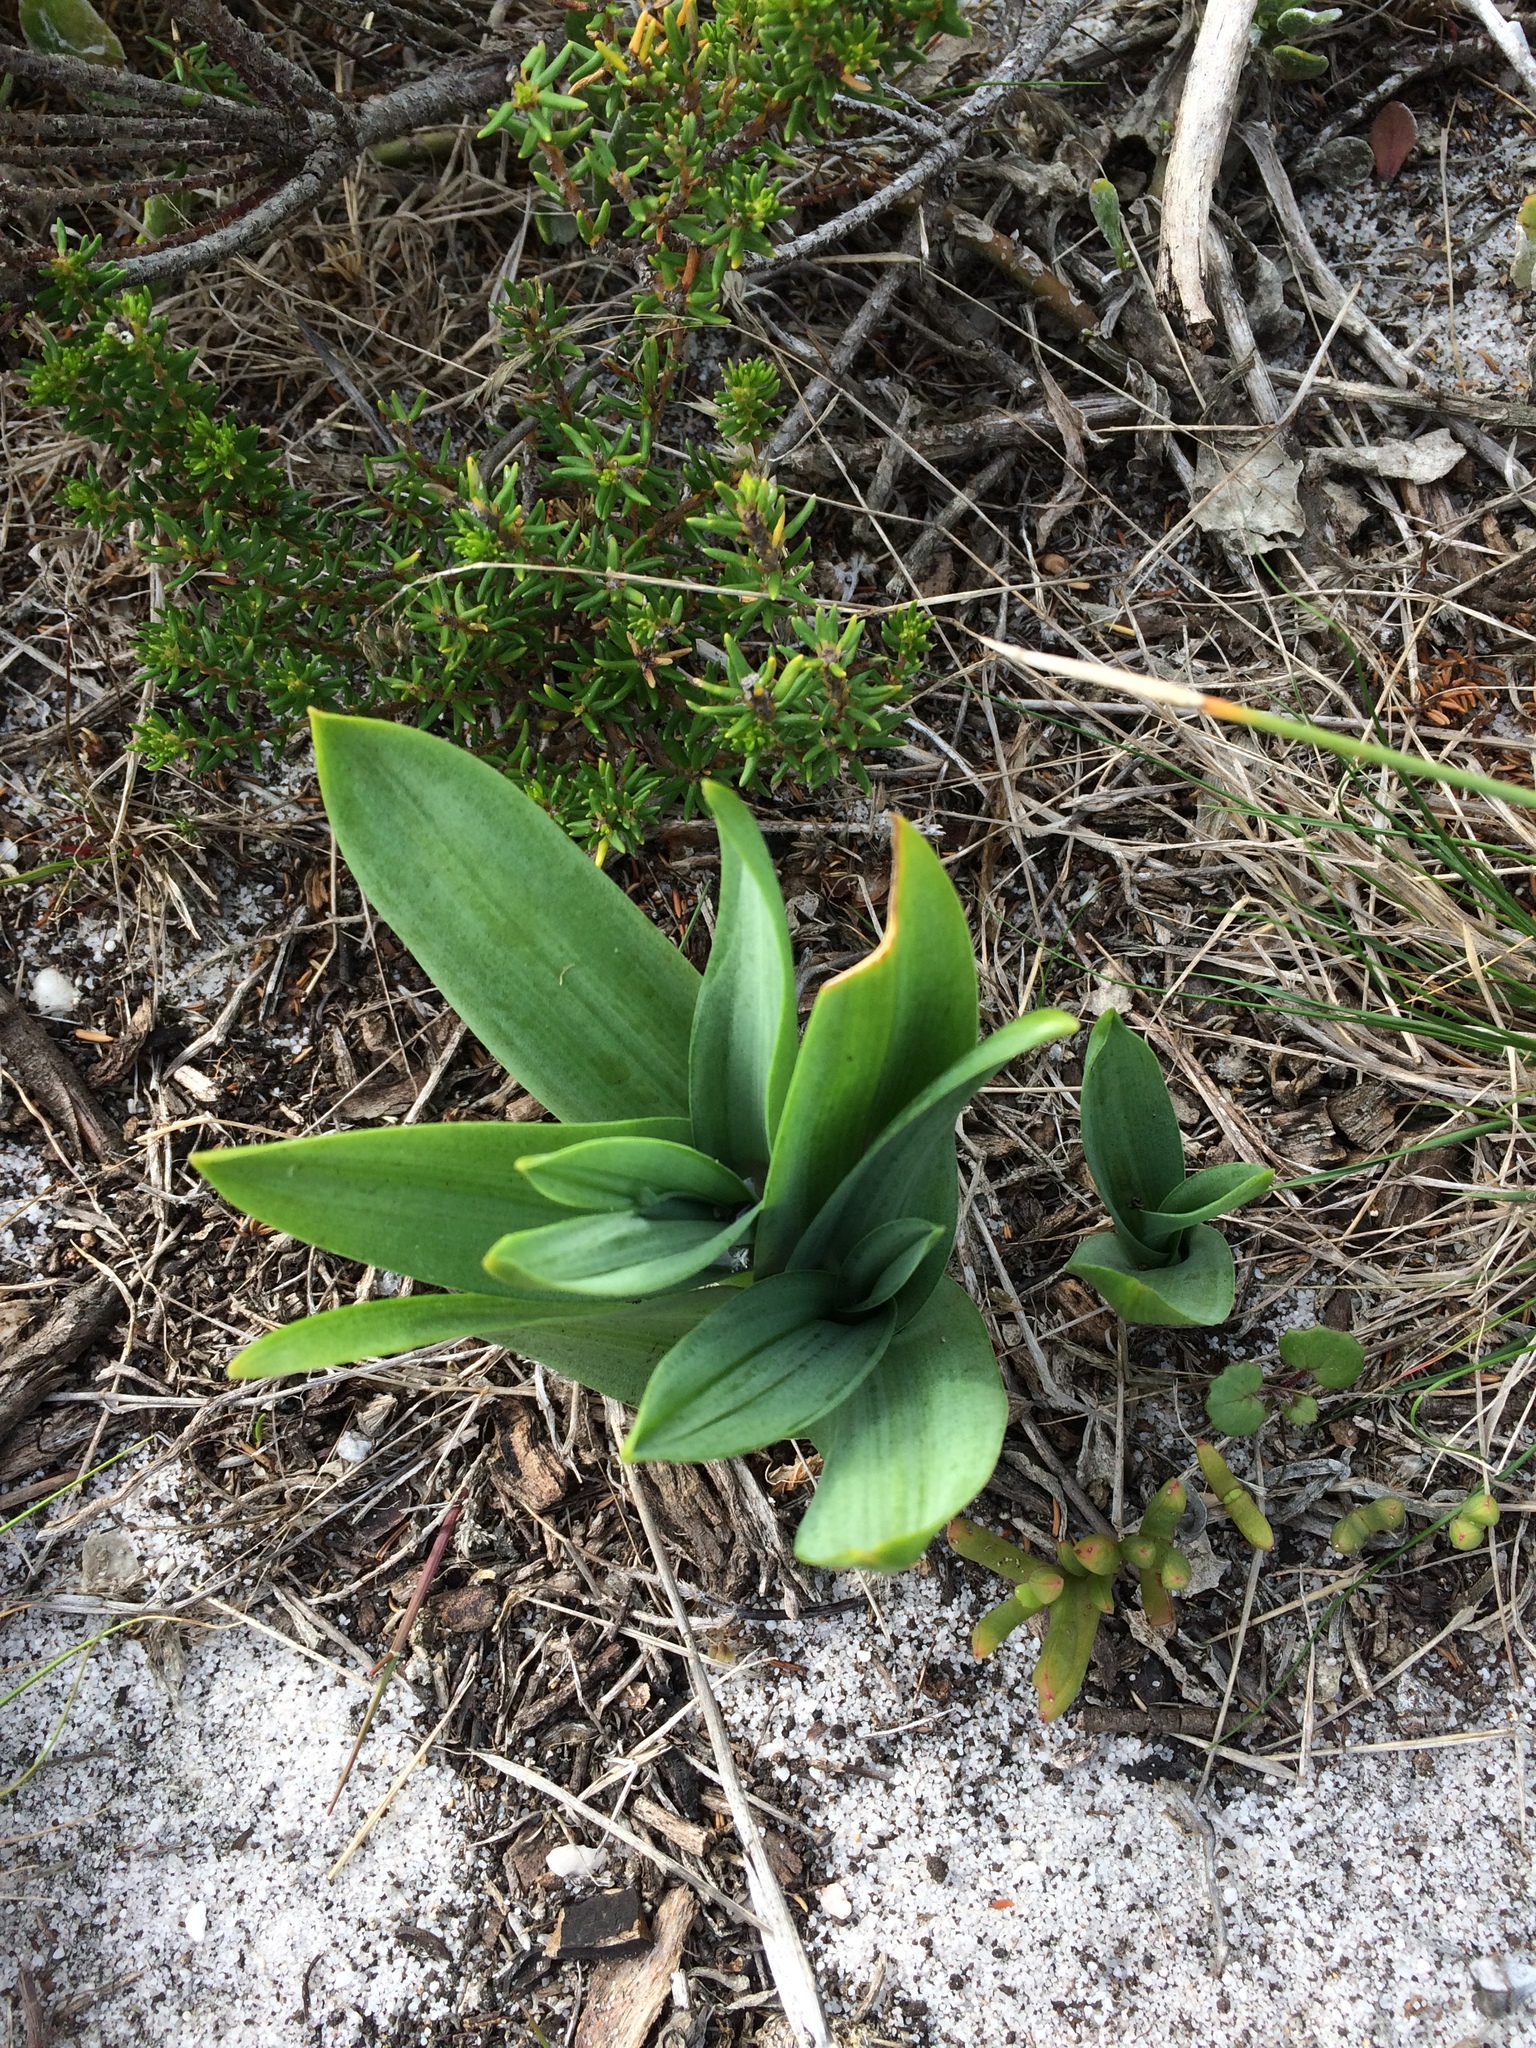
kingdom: Plantae
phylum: Tracheophyta
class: Liliopsida
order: Asparagales
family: Asparagaceae
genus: Drimia
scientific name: Drimia capensis
